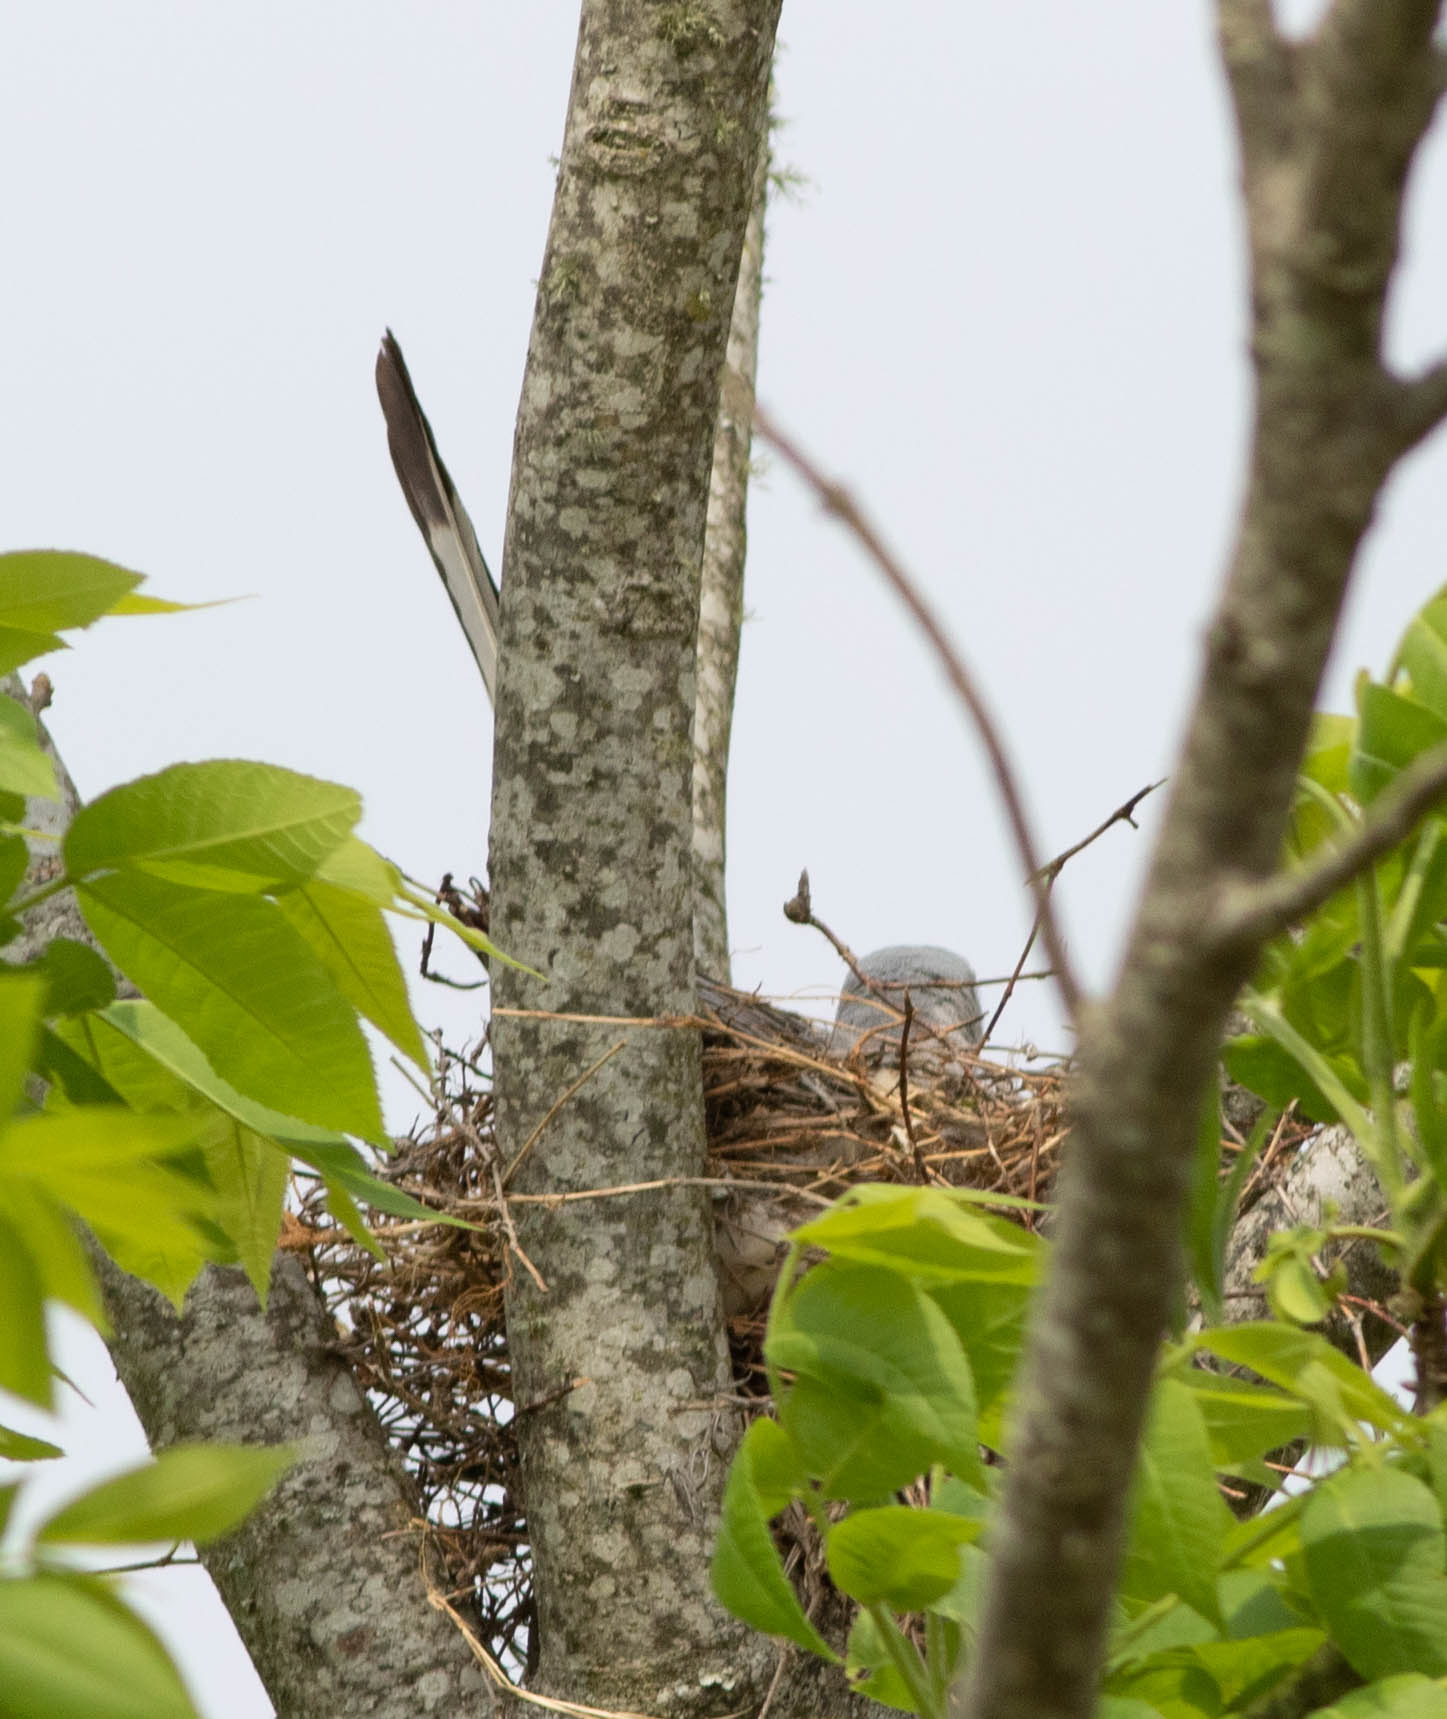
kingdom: Animalia
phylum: Chordata
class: Aves
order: Passeriformes
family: Tyrannidae
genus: Tyrannus
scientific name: Tyrannus forficatus
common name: Scissor-tailed flycatcher
